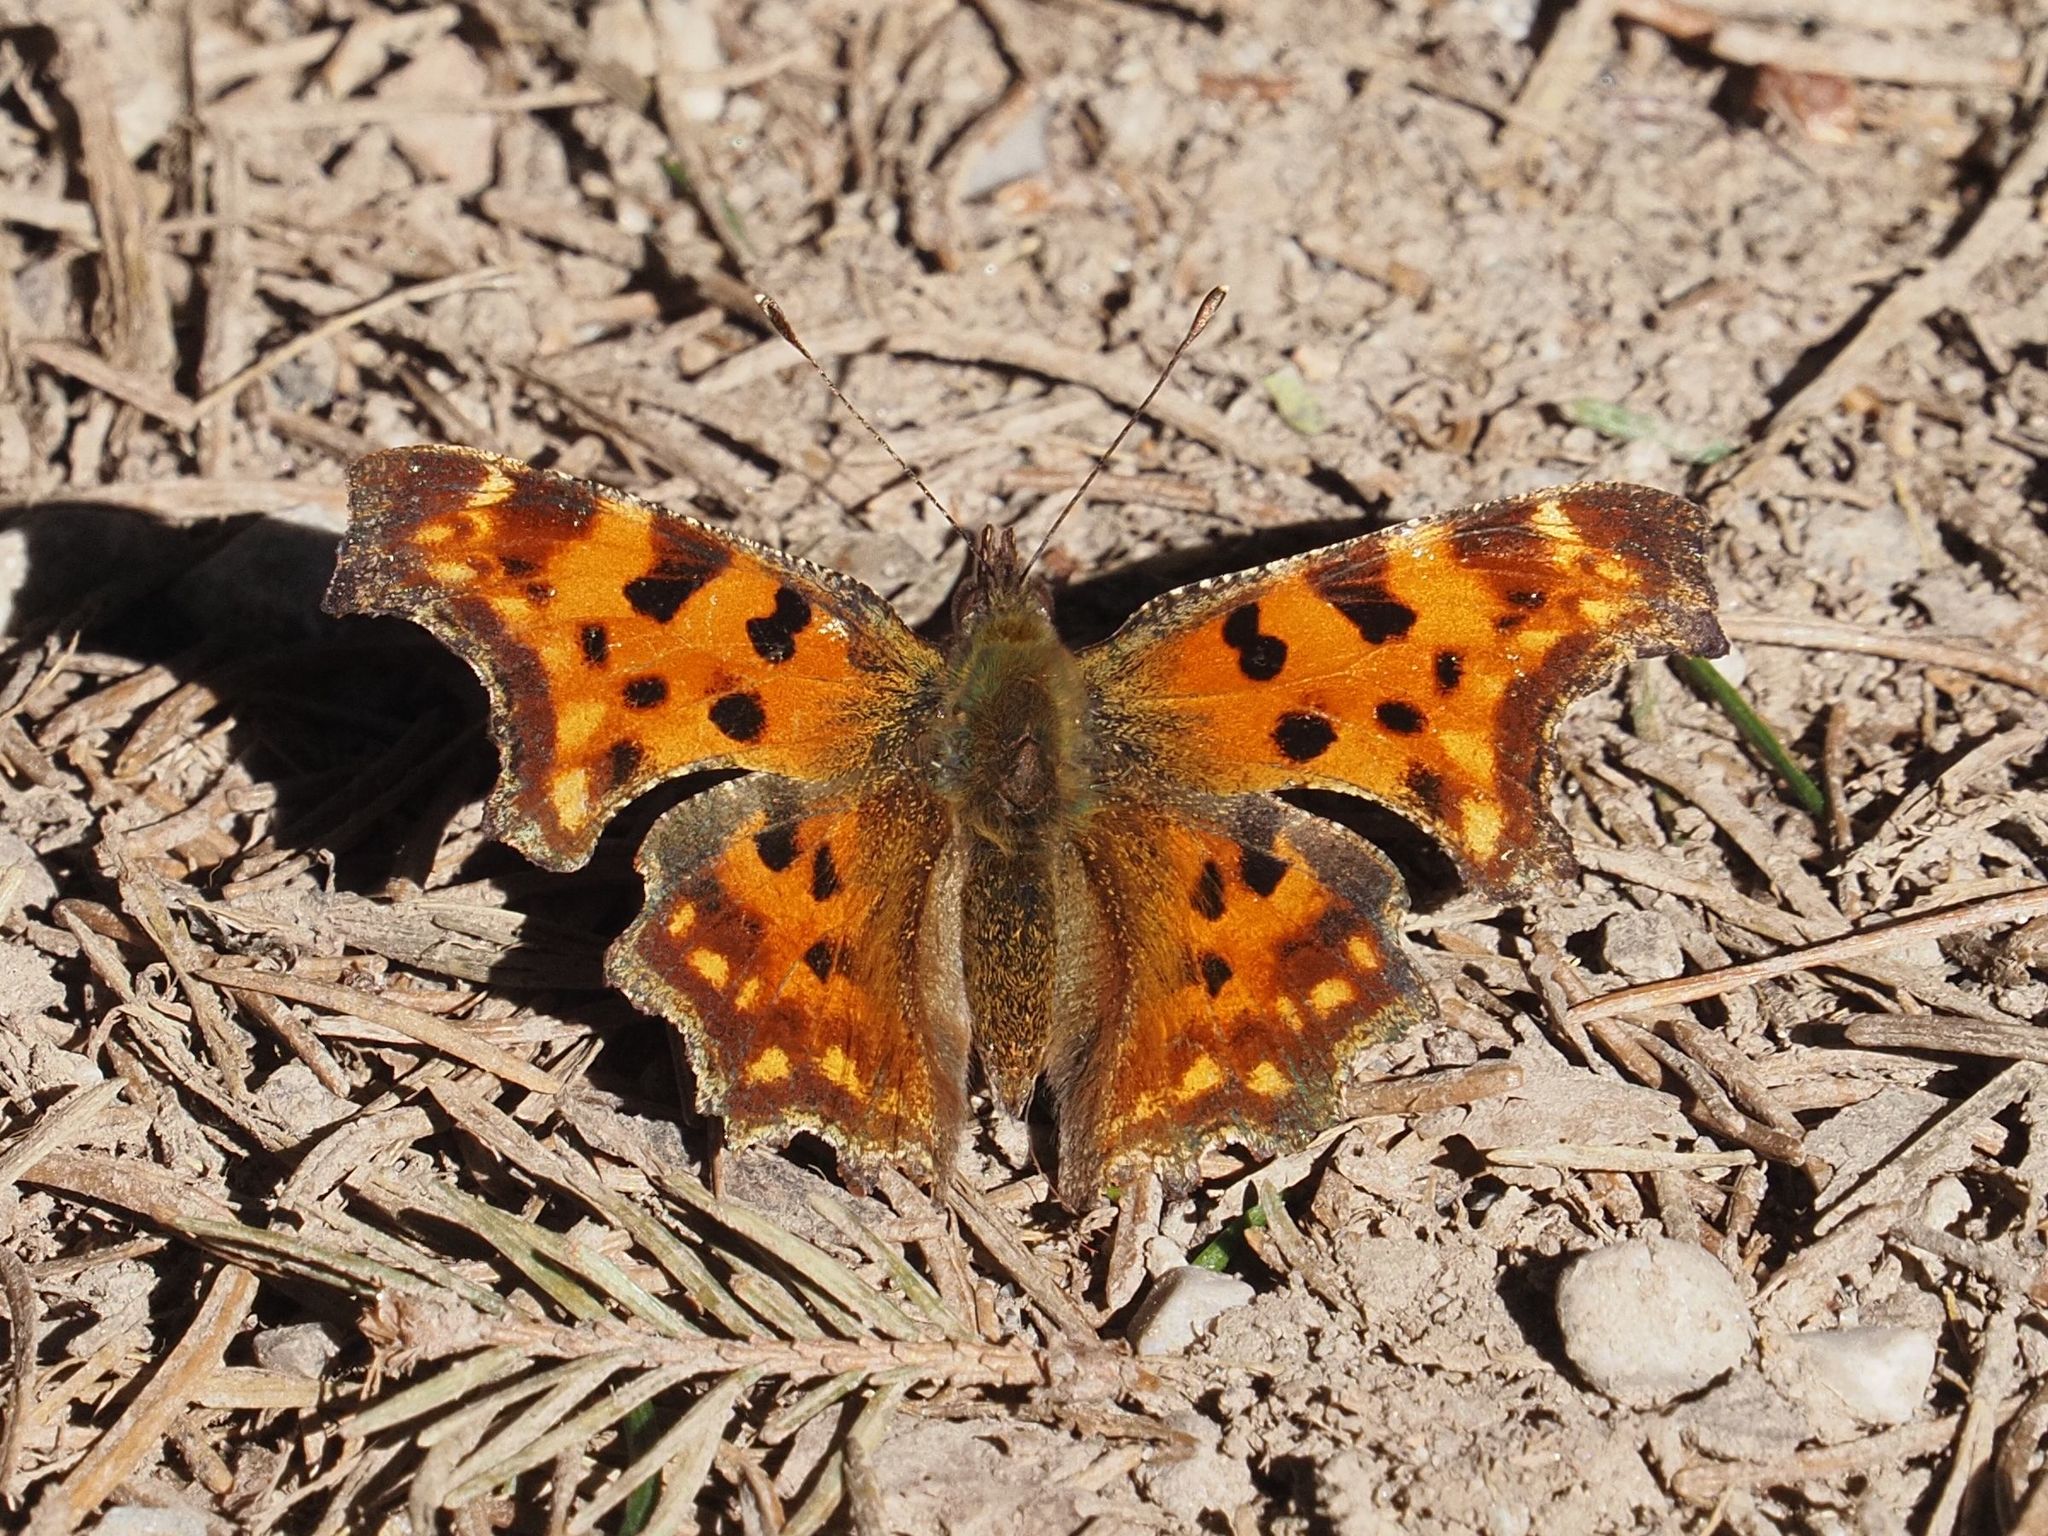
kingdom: Animalia
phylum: Arthropoda
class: Insecta
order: Lepidoptera
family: Nymphalidae
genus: Polygonia
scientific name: Polygonia c-album
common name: Comma
